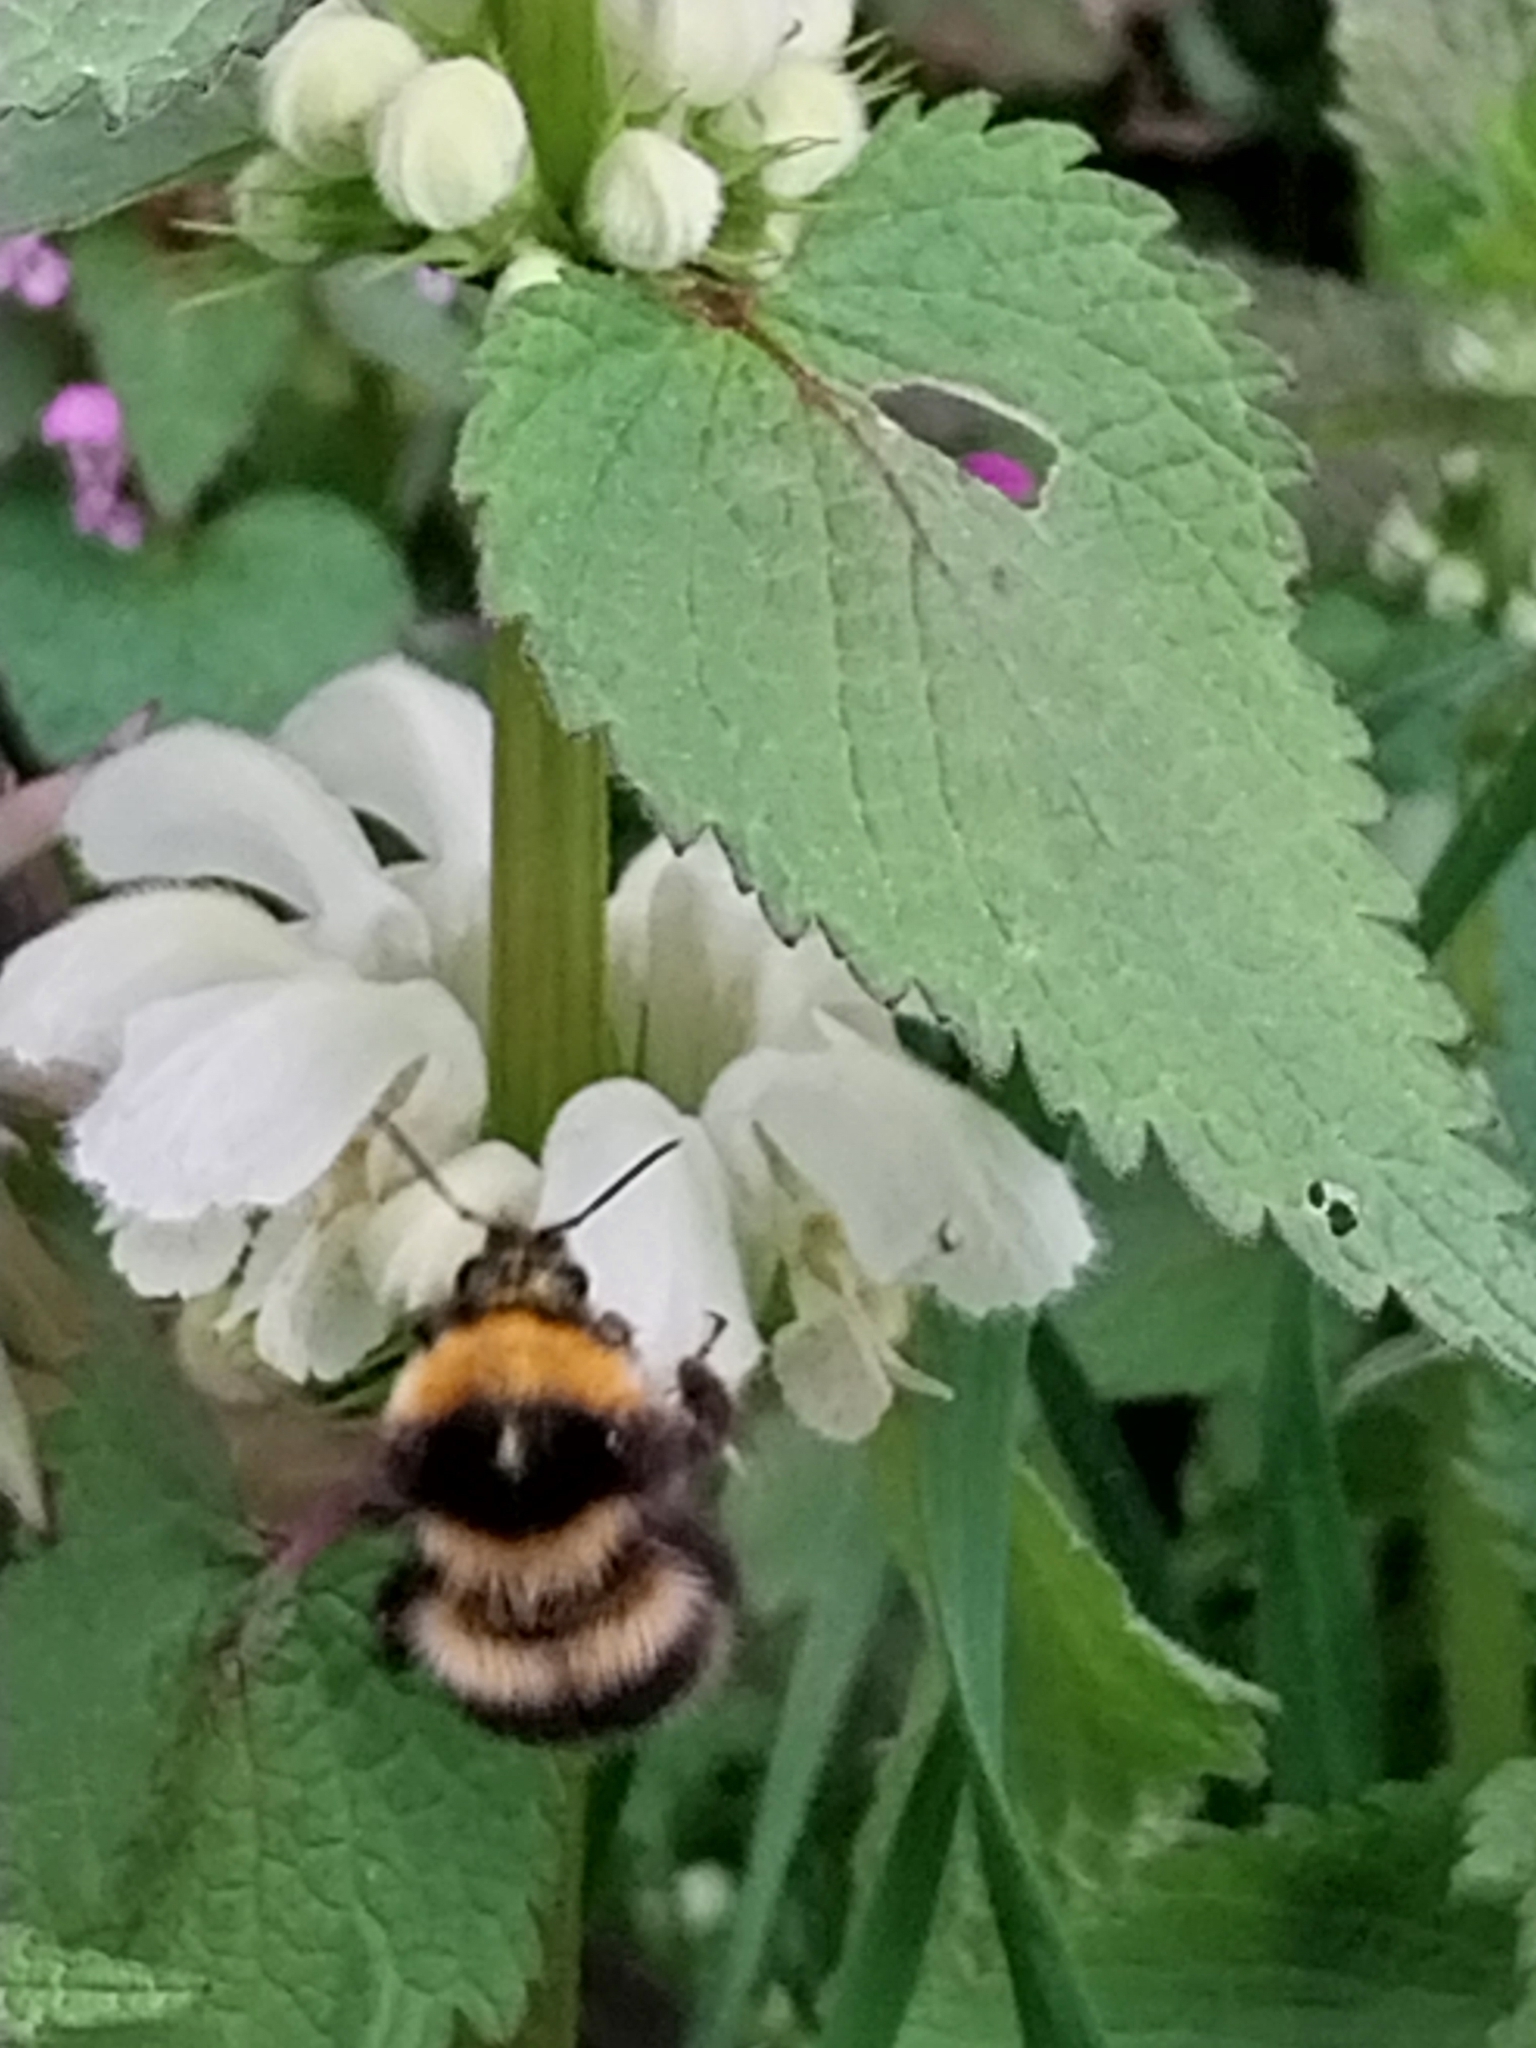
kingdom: Animalia
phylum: Arthropoda
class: Insecta
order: Hymenoptera
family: Apidae
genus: Bombus
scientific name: Bombus hortorum
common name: Garden bumblebee
